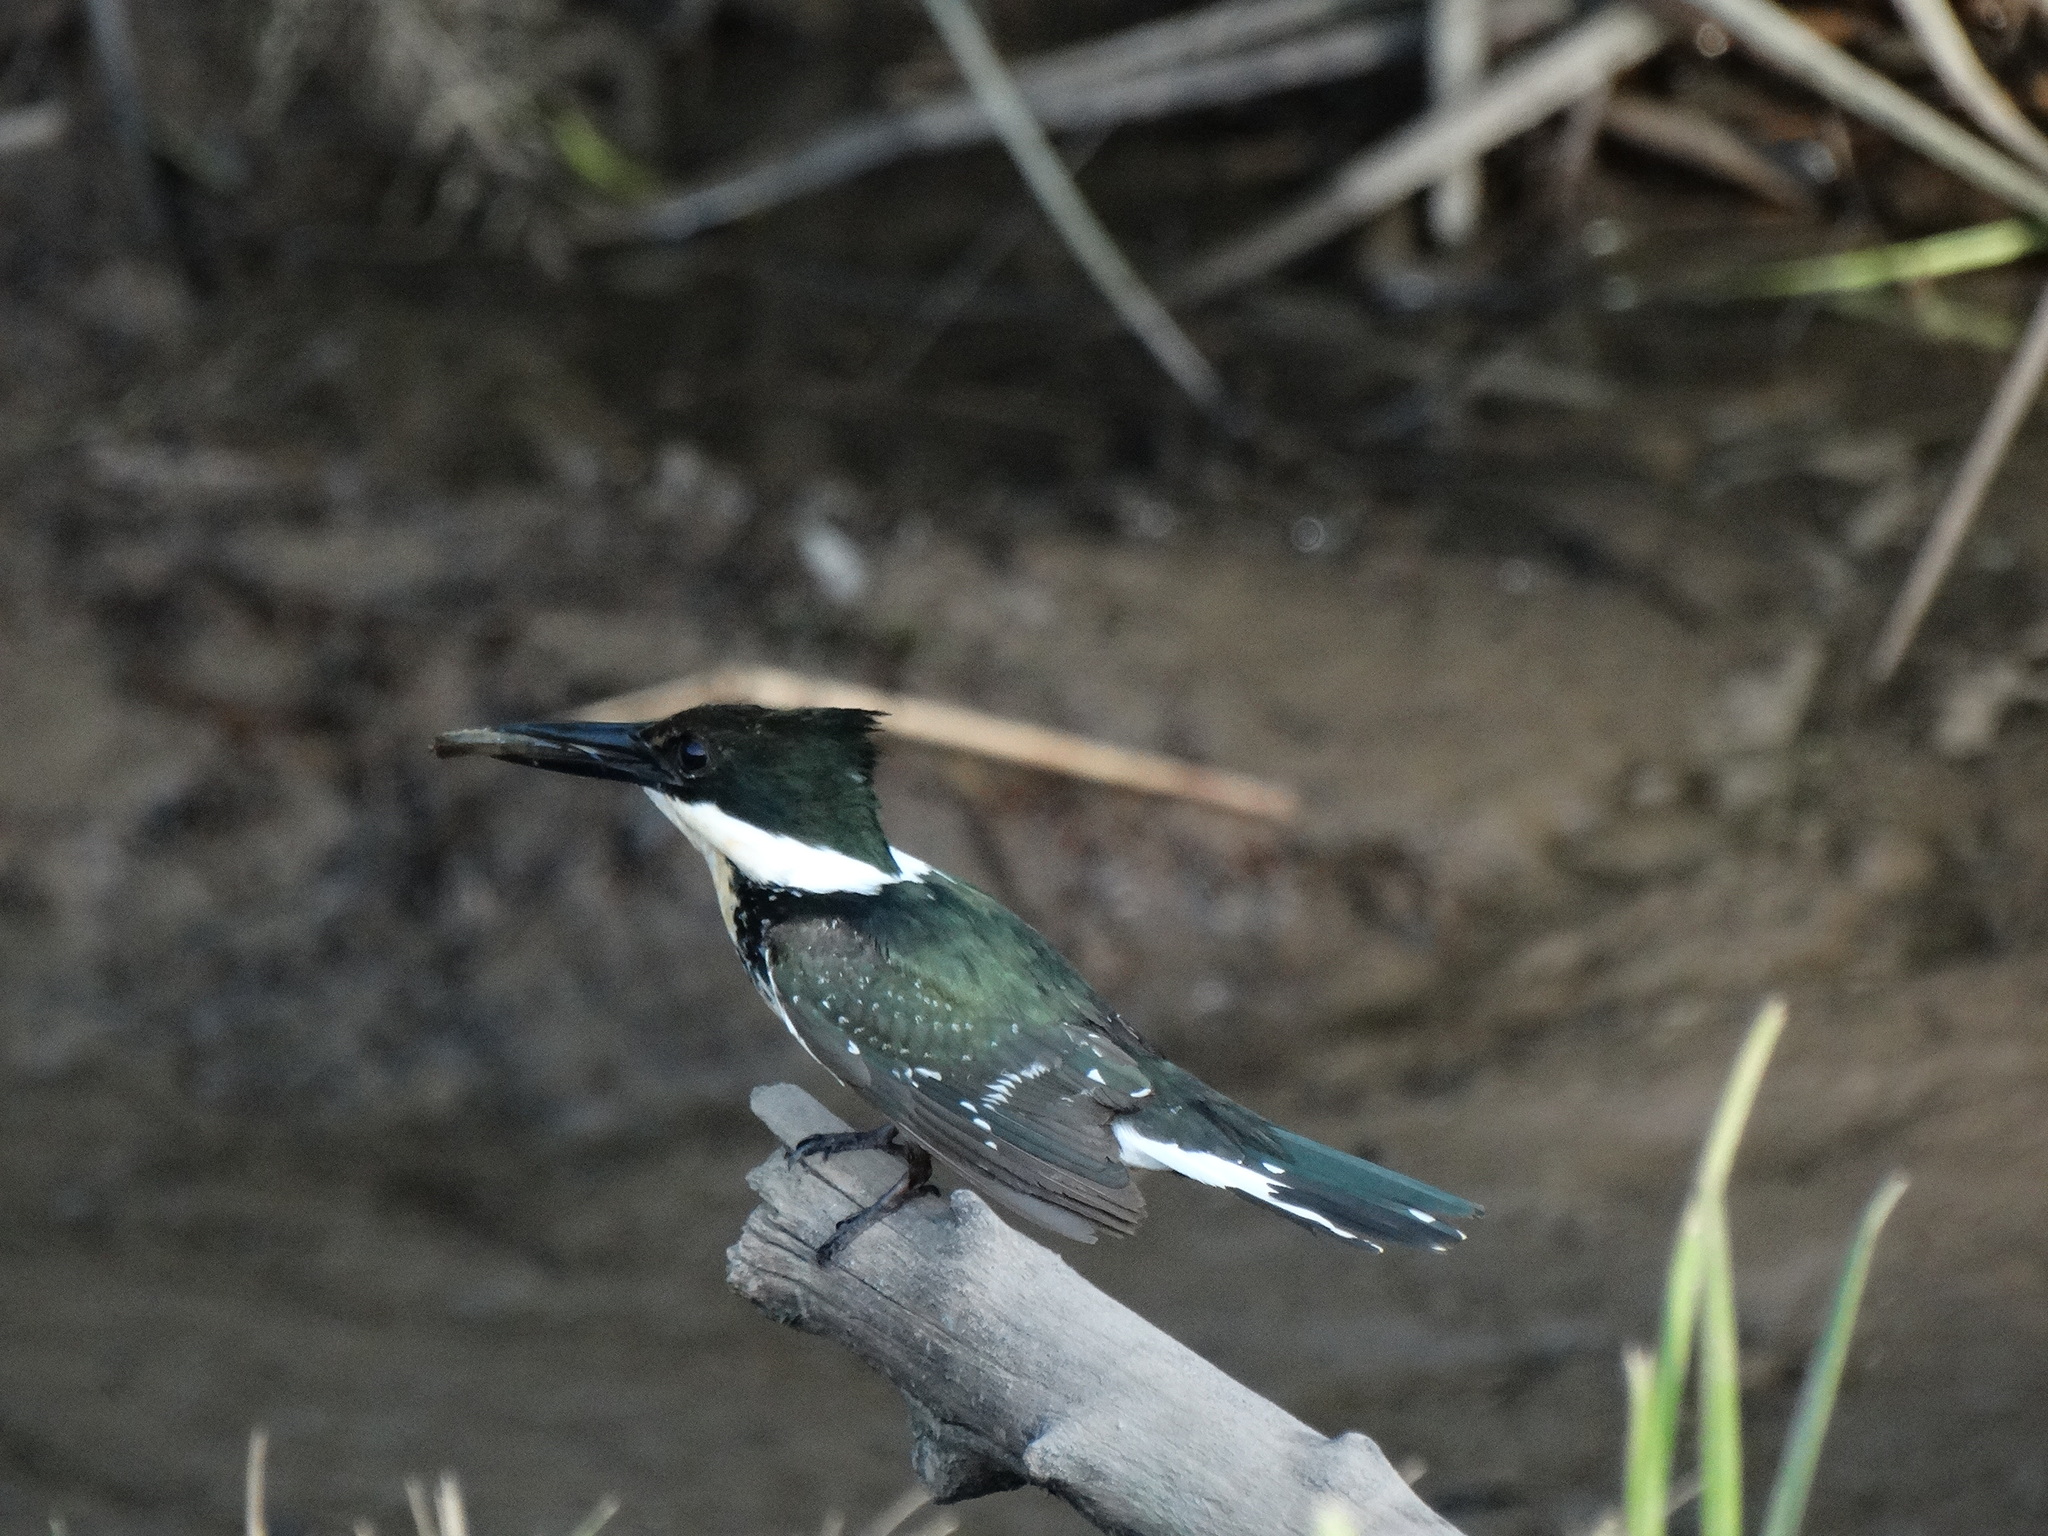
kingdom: Animalia
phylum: Chordata
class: Aves
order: Coraciiformes
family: Alcedinidae
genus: Chloroceryle
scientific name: Chloroceryle americana
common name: Green kingfisher
